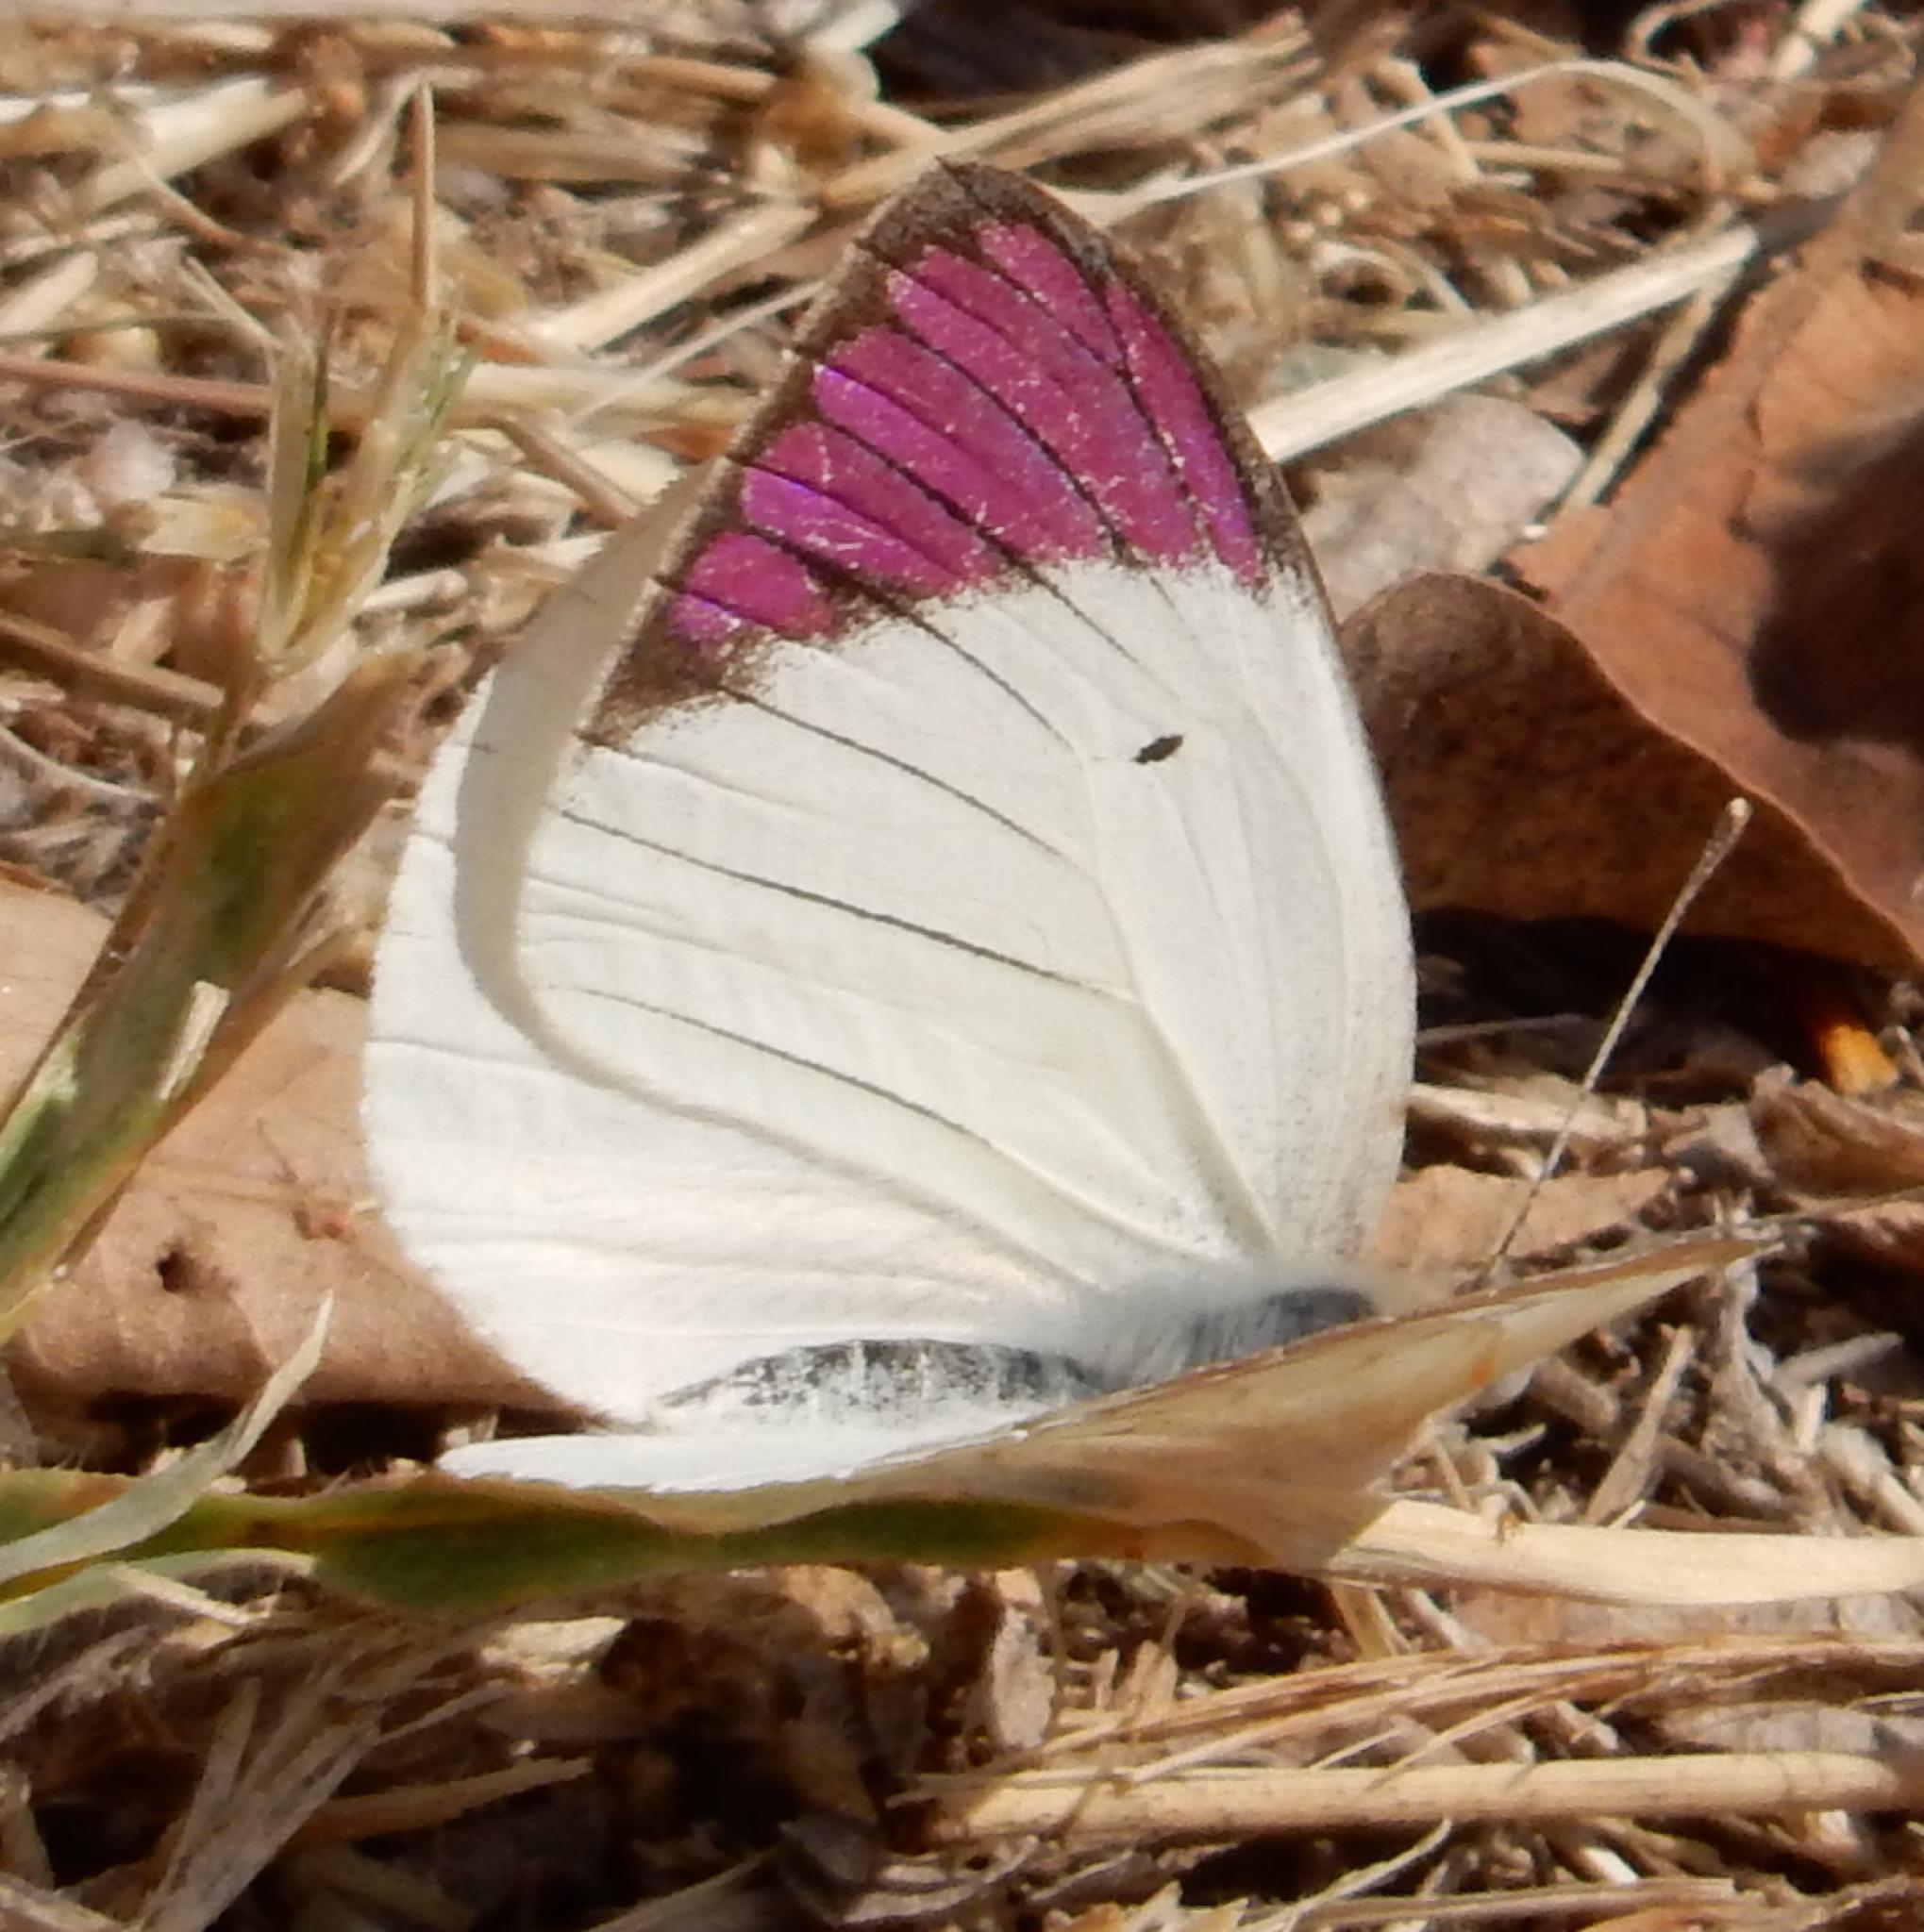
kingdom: Animalia
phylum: Arthropoda
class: Insecta
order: Lepidoptera
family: Pieridae
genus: Colotis
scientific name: Colotis regina
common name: Queen purple tip
